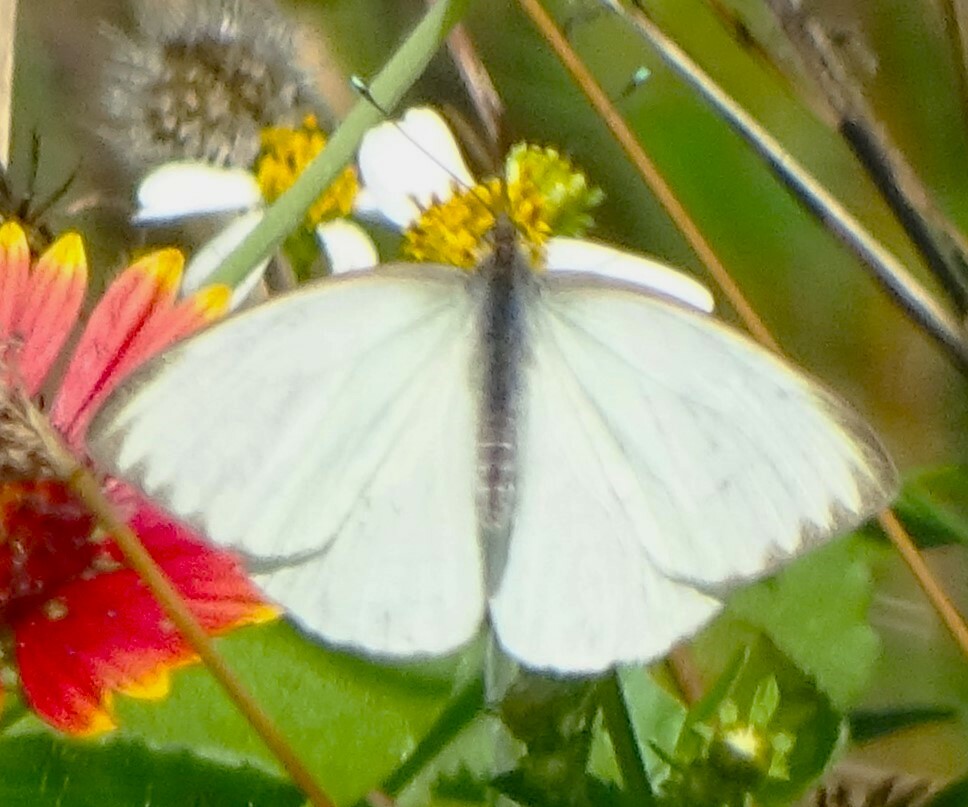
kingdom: Animalia
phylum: Arthropoda
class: Insecta
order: Lepidoptera
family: Pieridae
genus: Ascia
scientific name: Ascia monuste
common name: Great southern white
